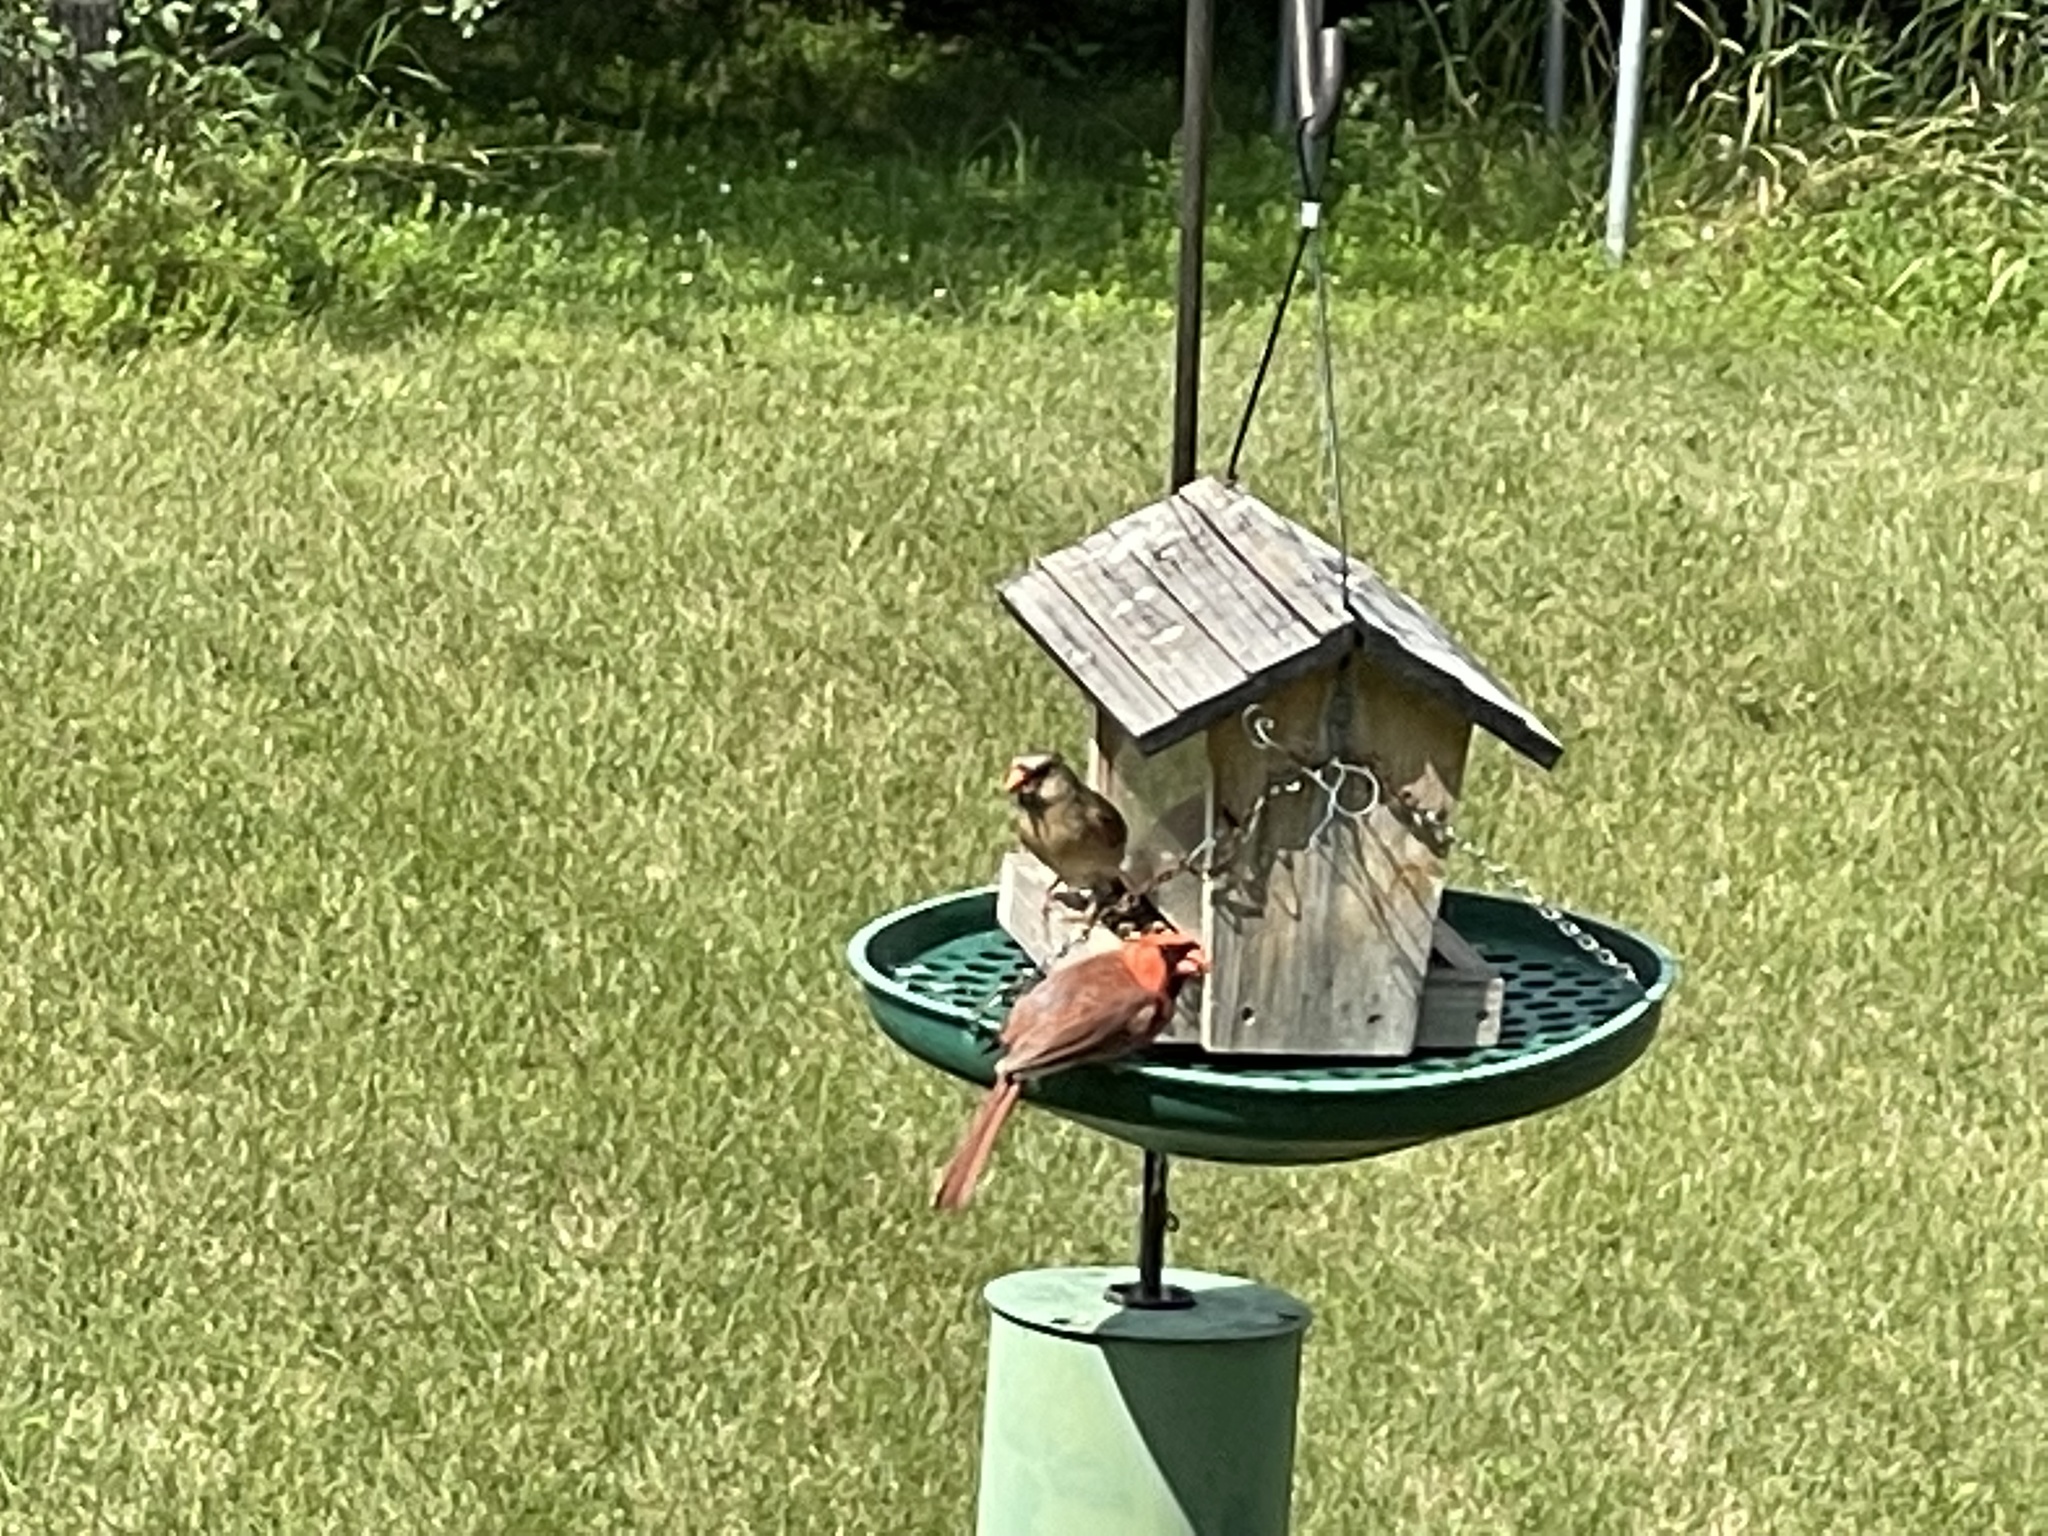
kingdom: Animalia
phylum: Chordata
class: Aves
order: Passeriformes
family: Cardinalidae
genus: Cardinalis
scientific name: Cardinalis cardinalis
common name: Northern cardinal
